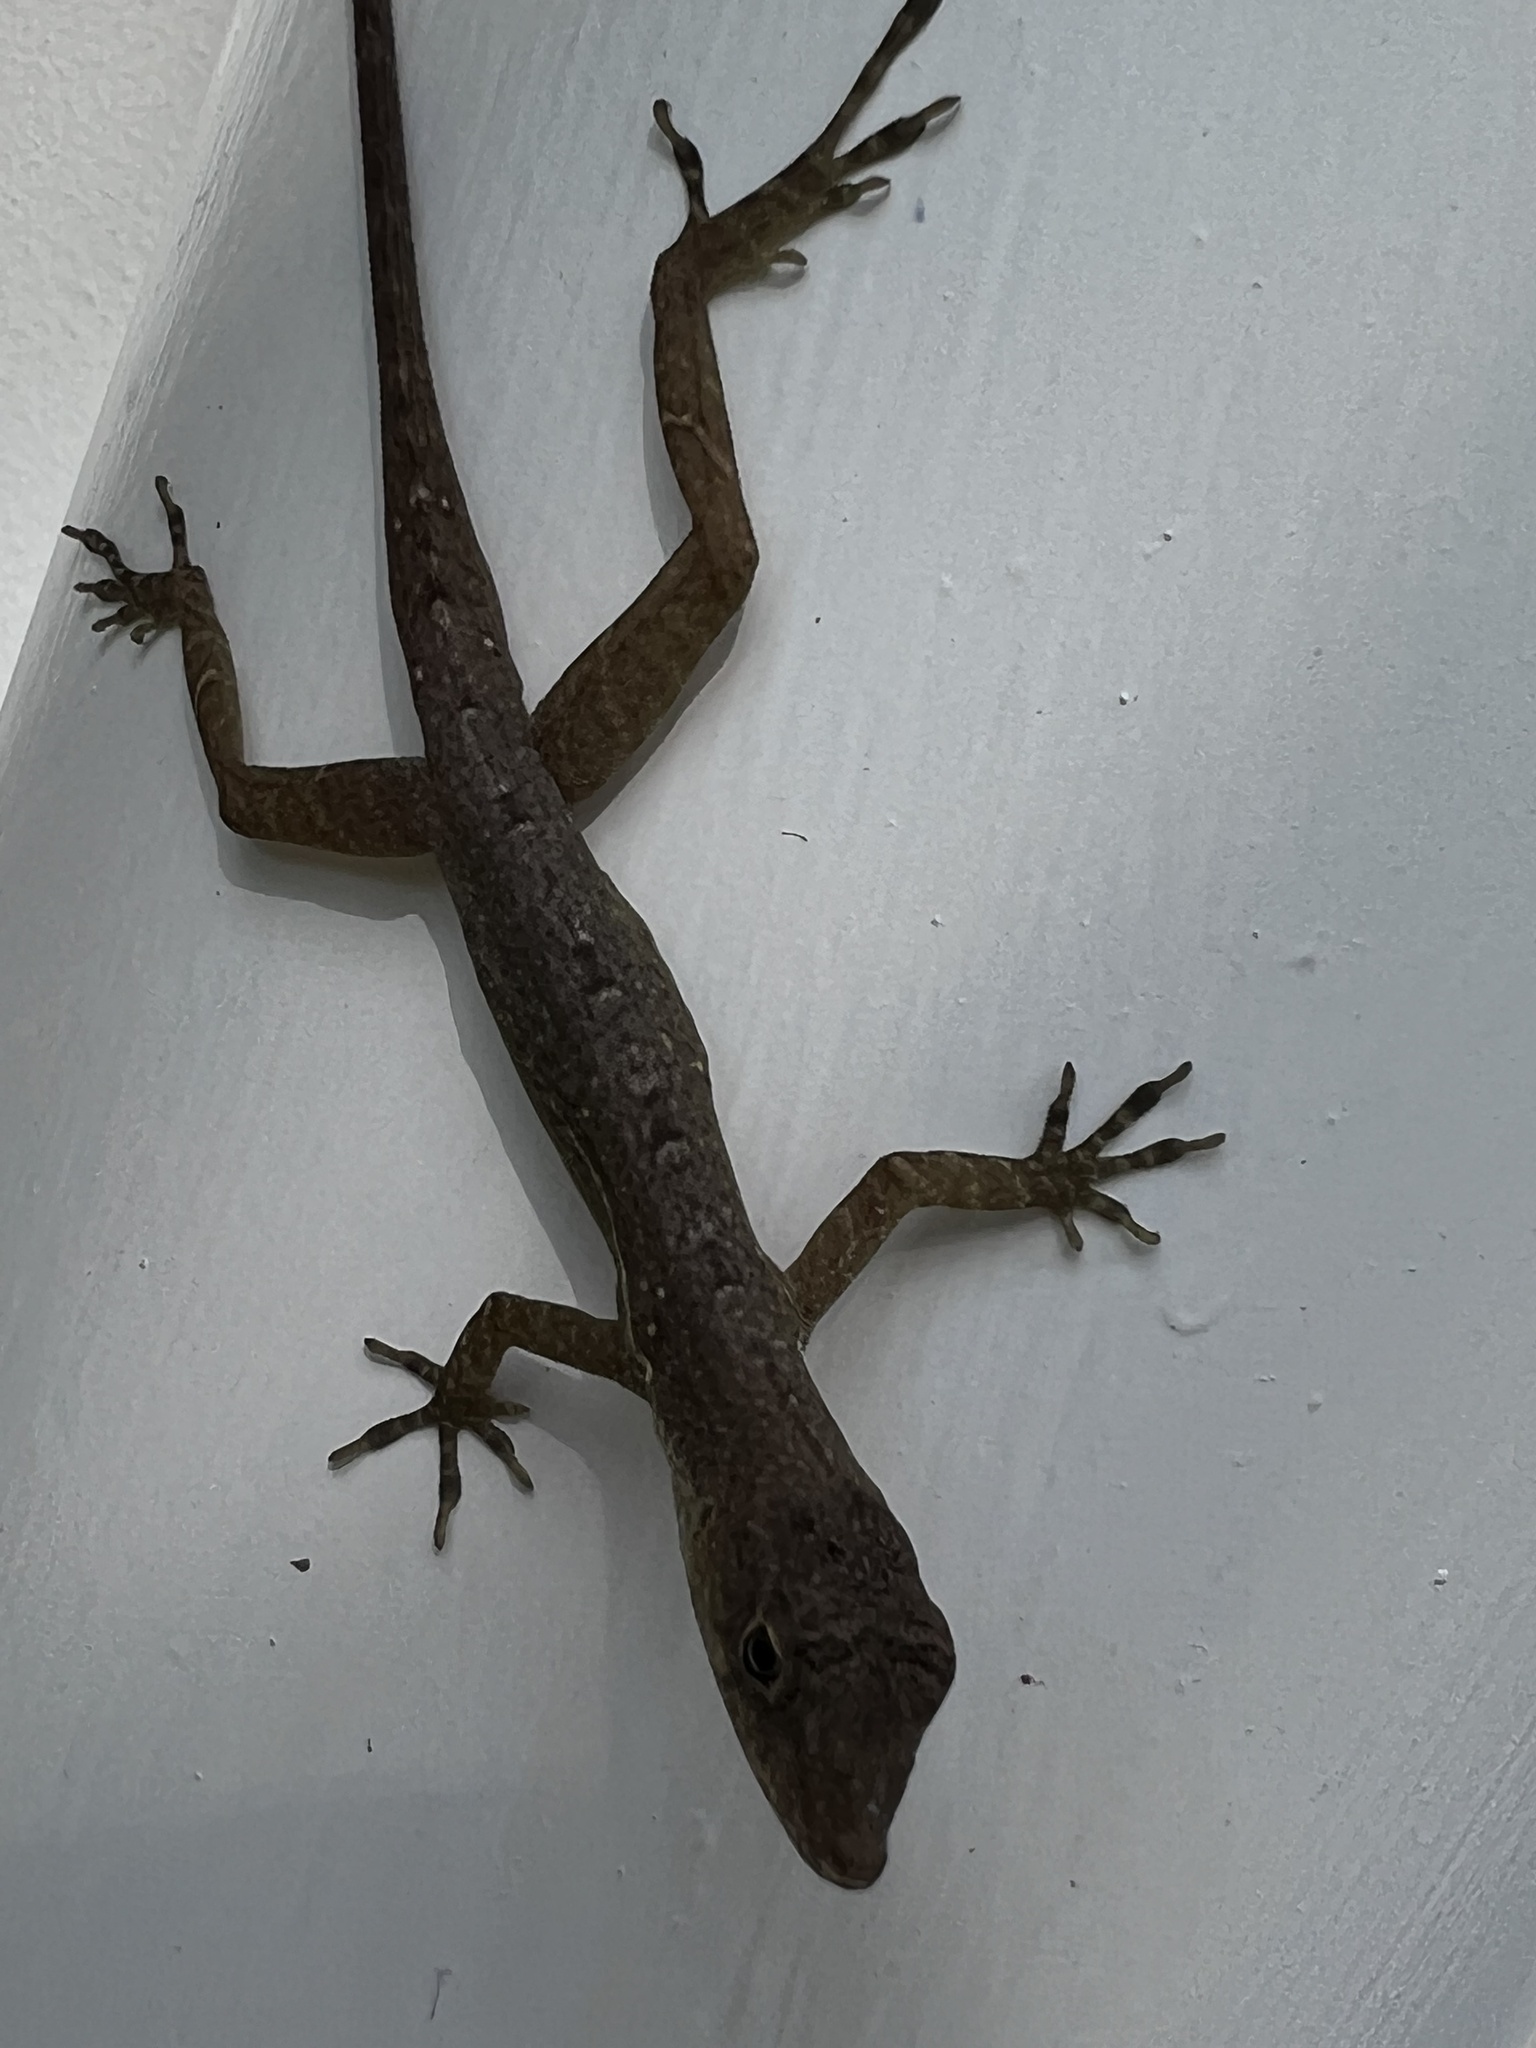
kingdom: Animalia
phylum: Chordata
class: Squamata
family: Dactyloidae
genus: Anolis
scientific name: Anolis polylepis
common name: Many-scaled anole
